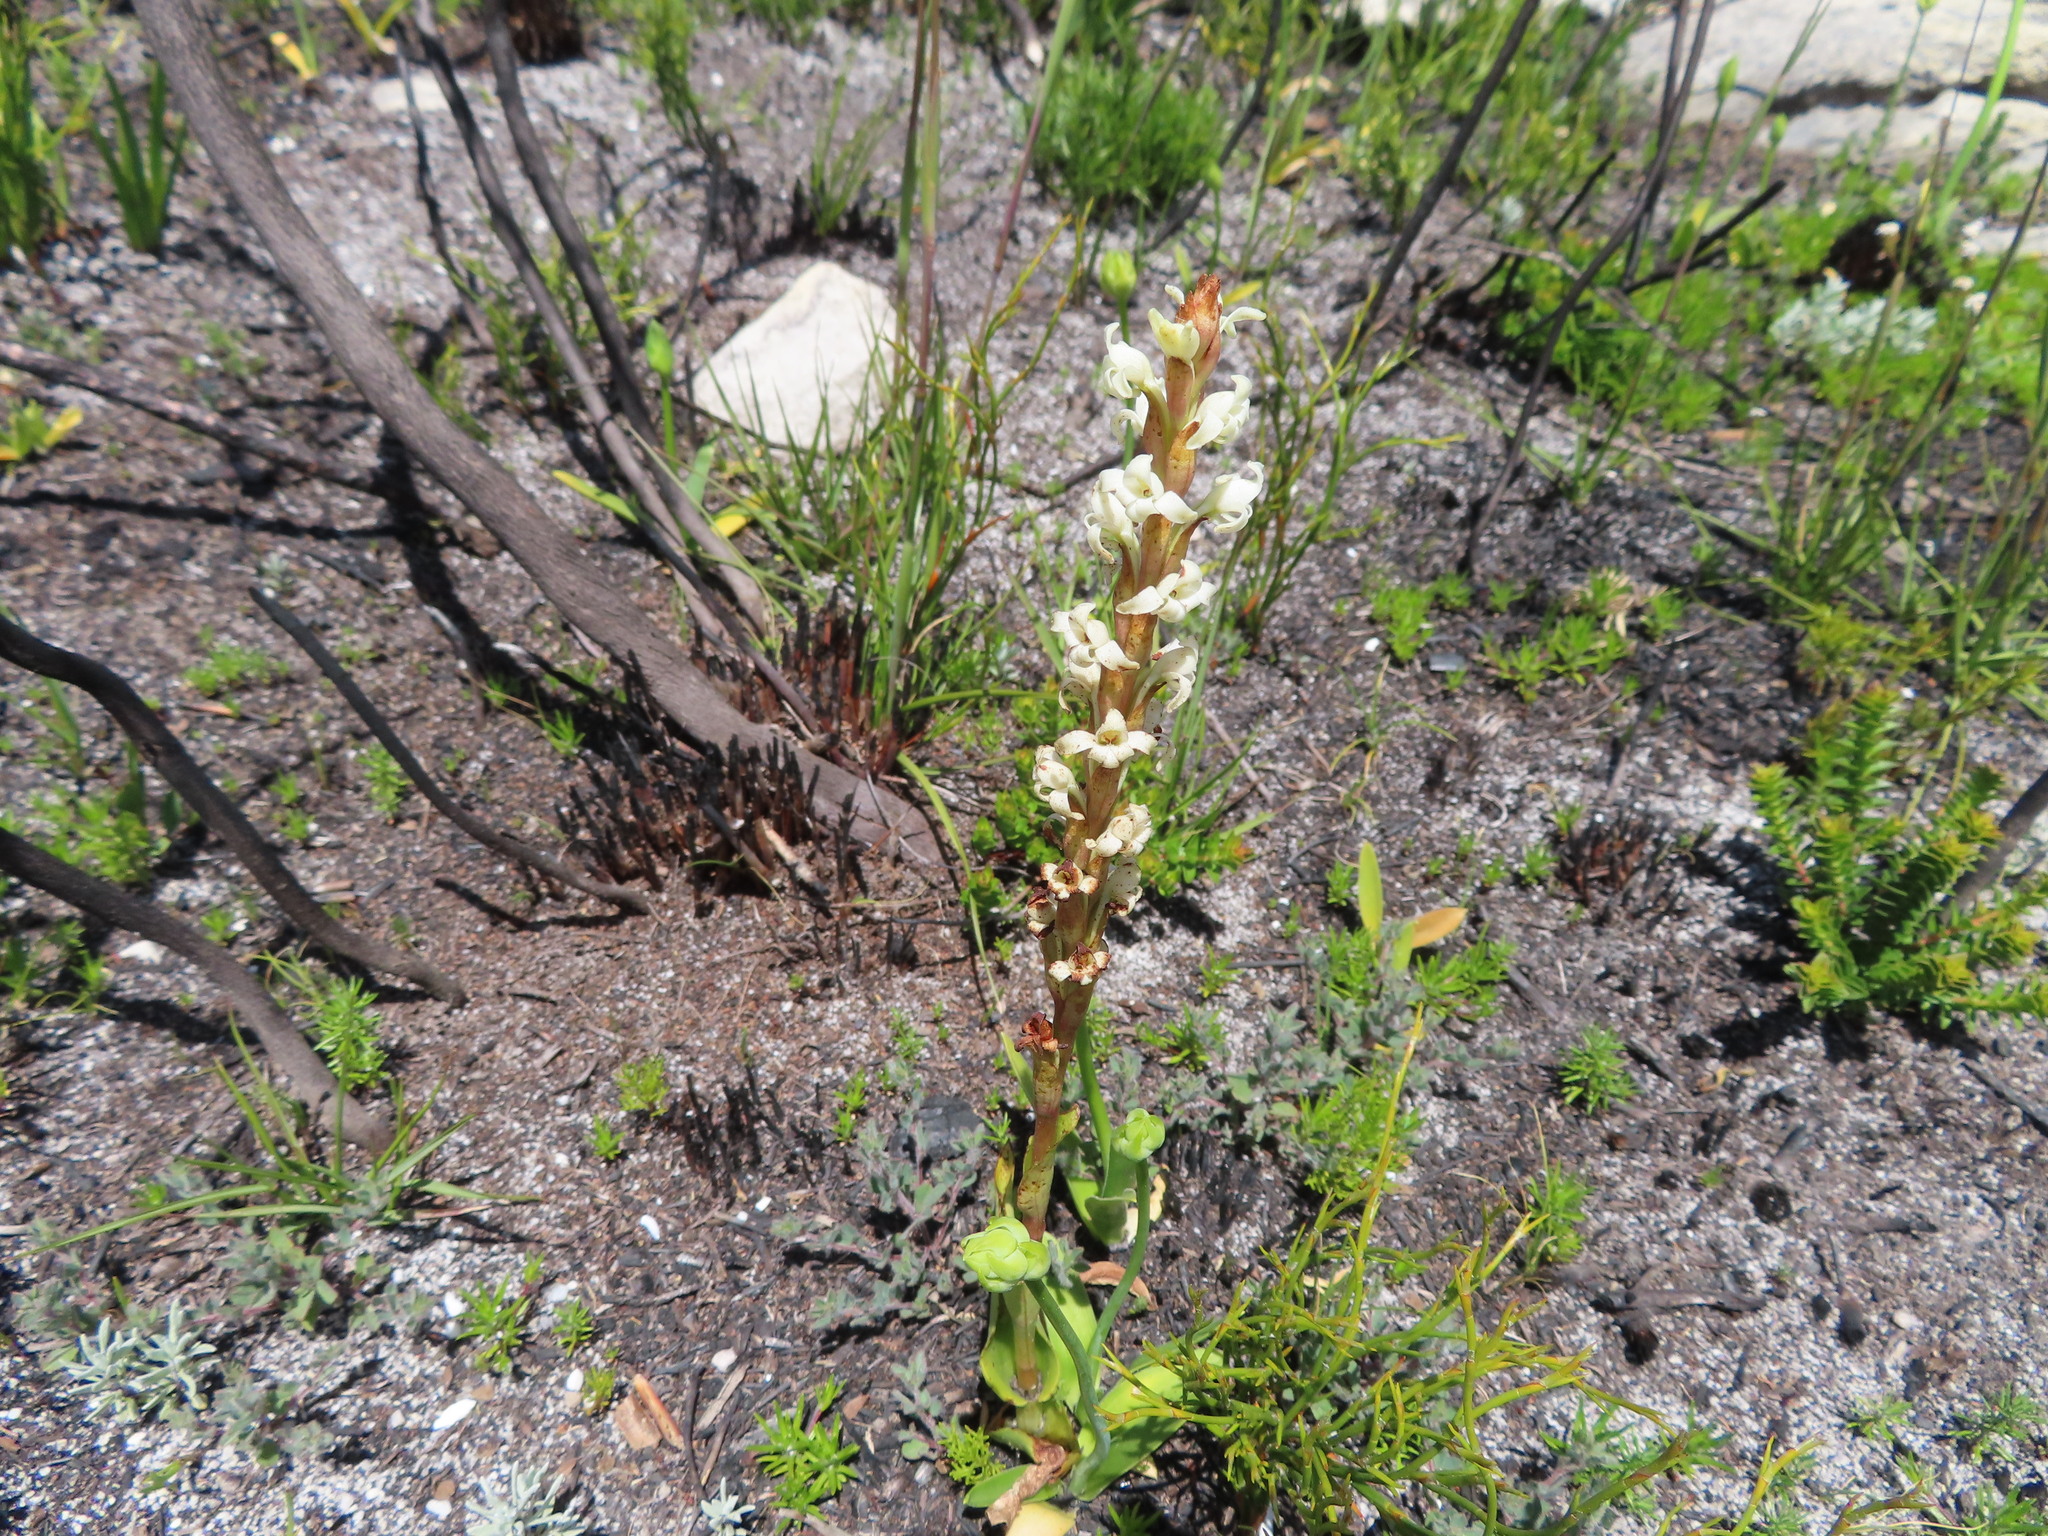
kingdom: Plantae
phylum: Tracheophyta
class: Liliopsida
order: Asparagales
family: Orchidaceae
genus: Satyrium
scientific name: Satyrium stenopetalum
